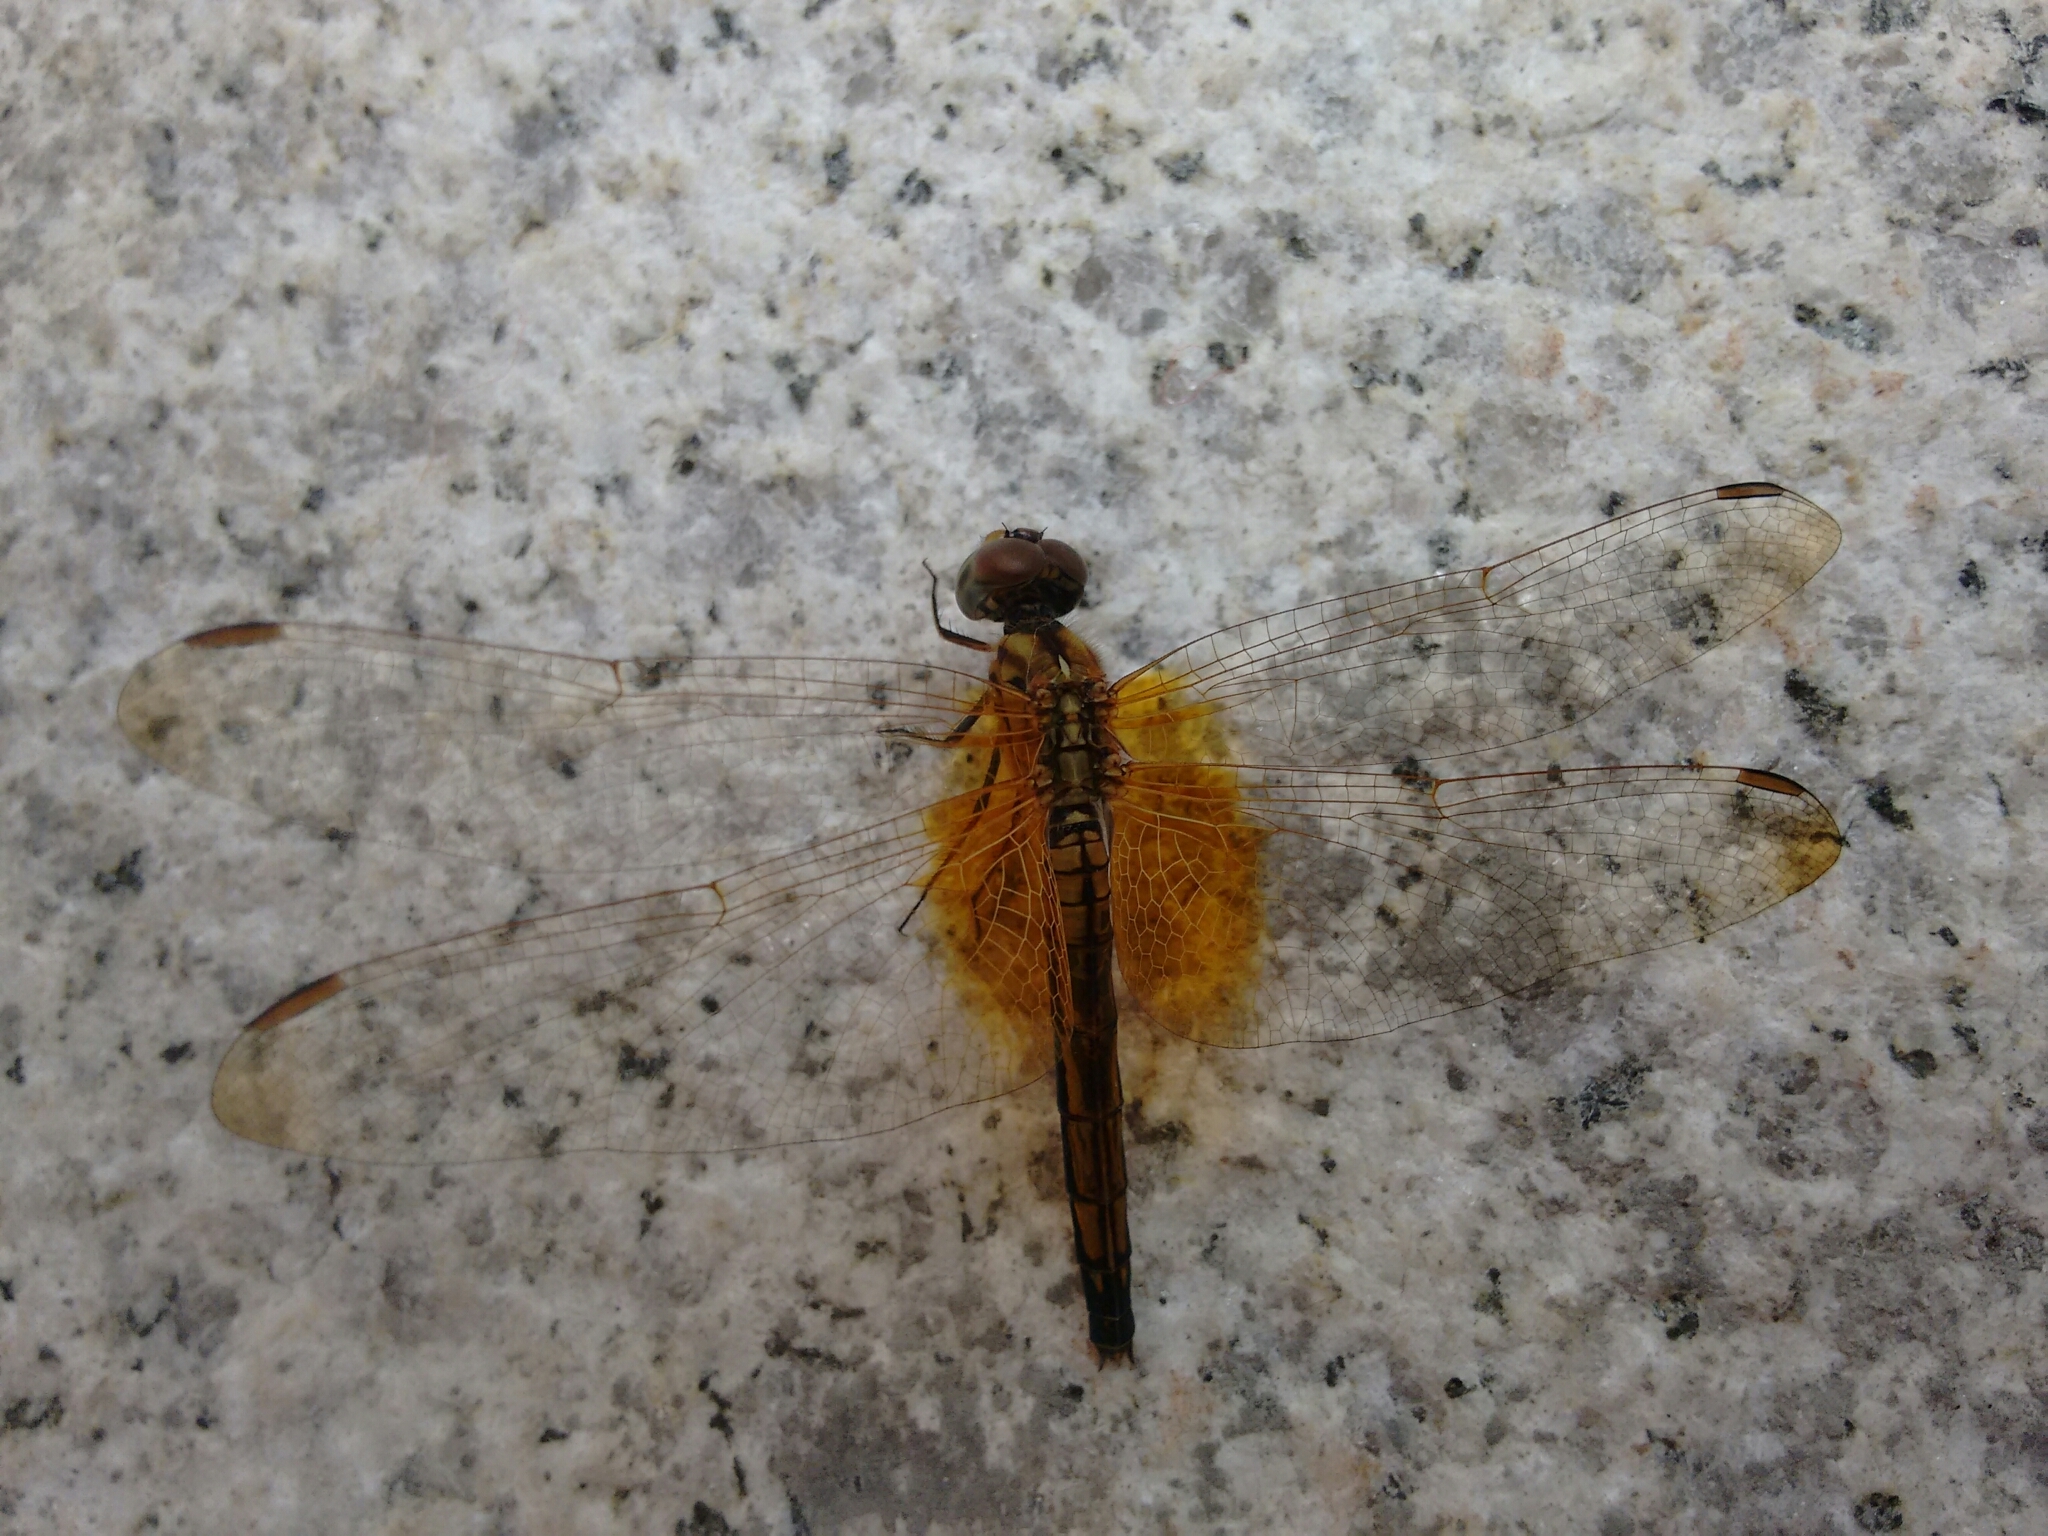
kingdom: Animalia
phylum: Arthropoda
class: Insecta
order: Odonata
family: Libellulidae
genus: Trithemis
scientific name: Trithemis aurora
